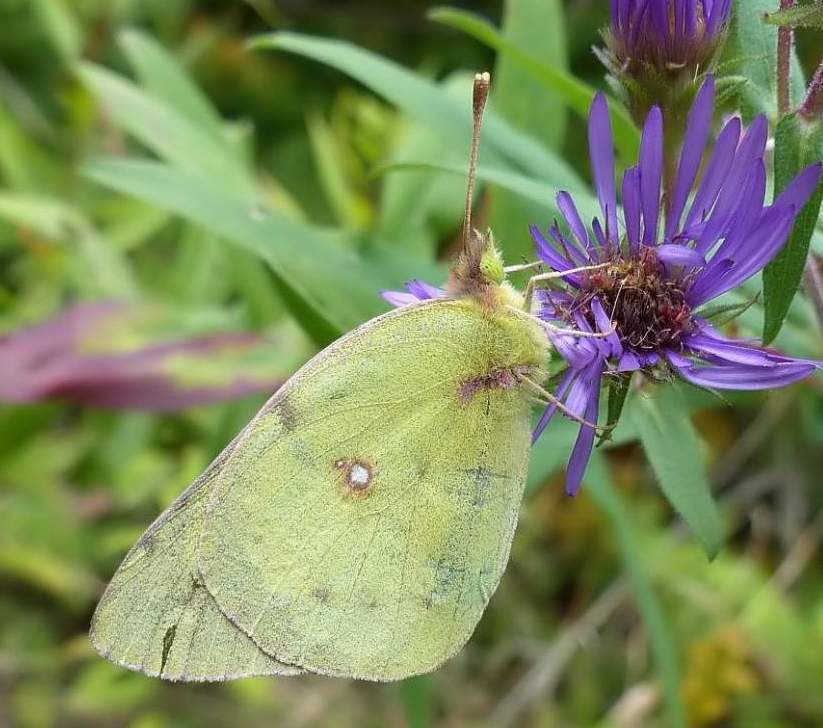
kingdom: Animalia
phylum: Arthropoda
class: Insecta
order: Lepidoptera
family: Pieridae
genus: Colias
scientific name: Colias philodice
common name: Clouded sulphur
